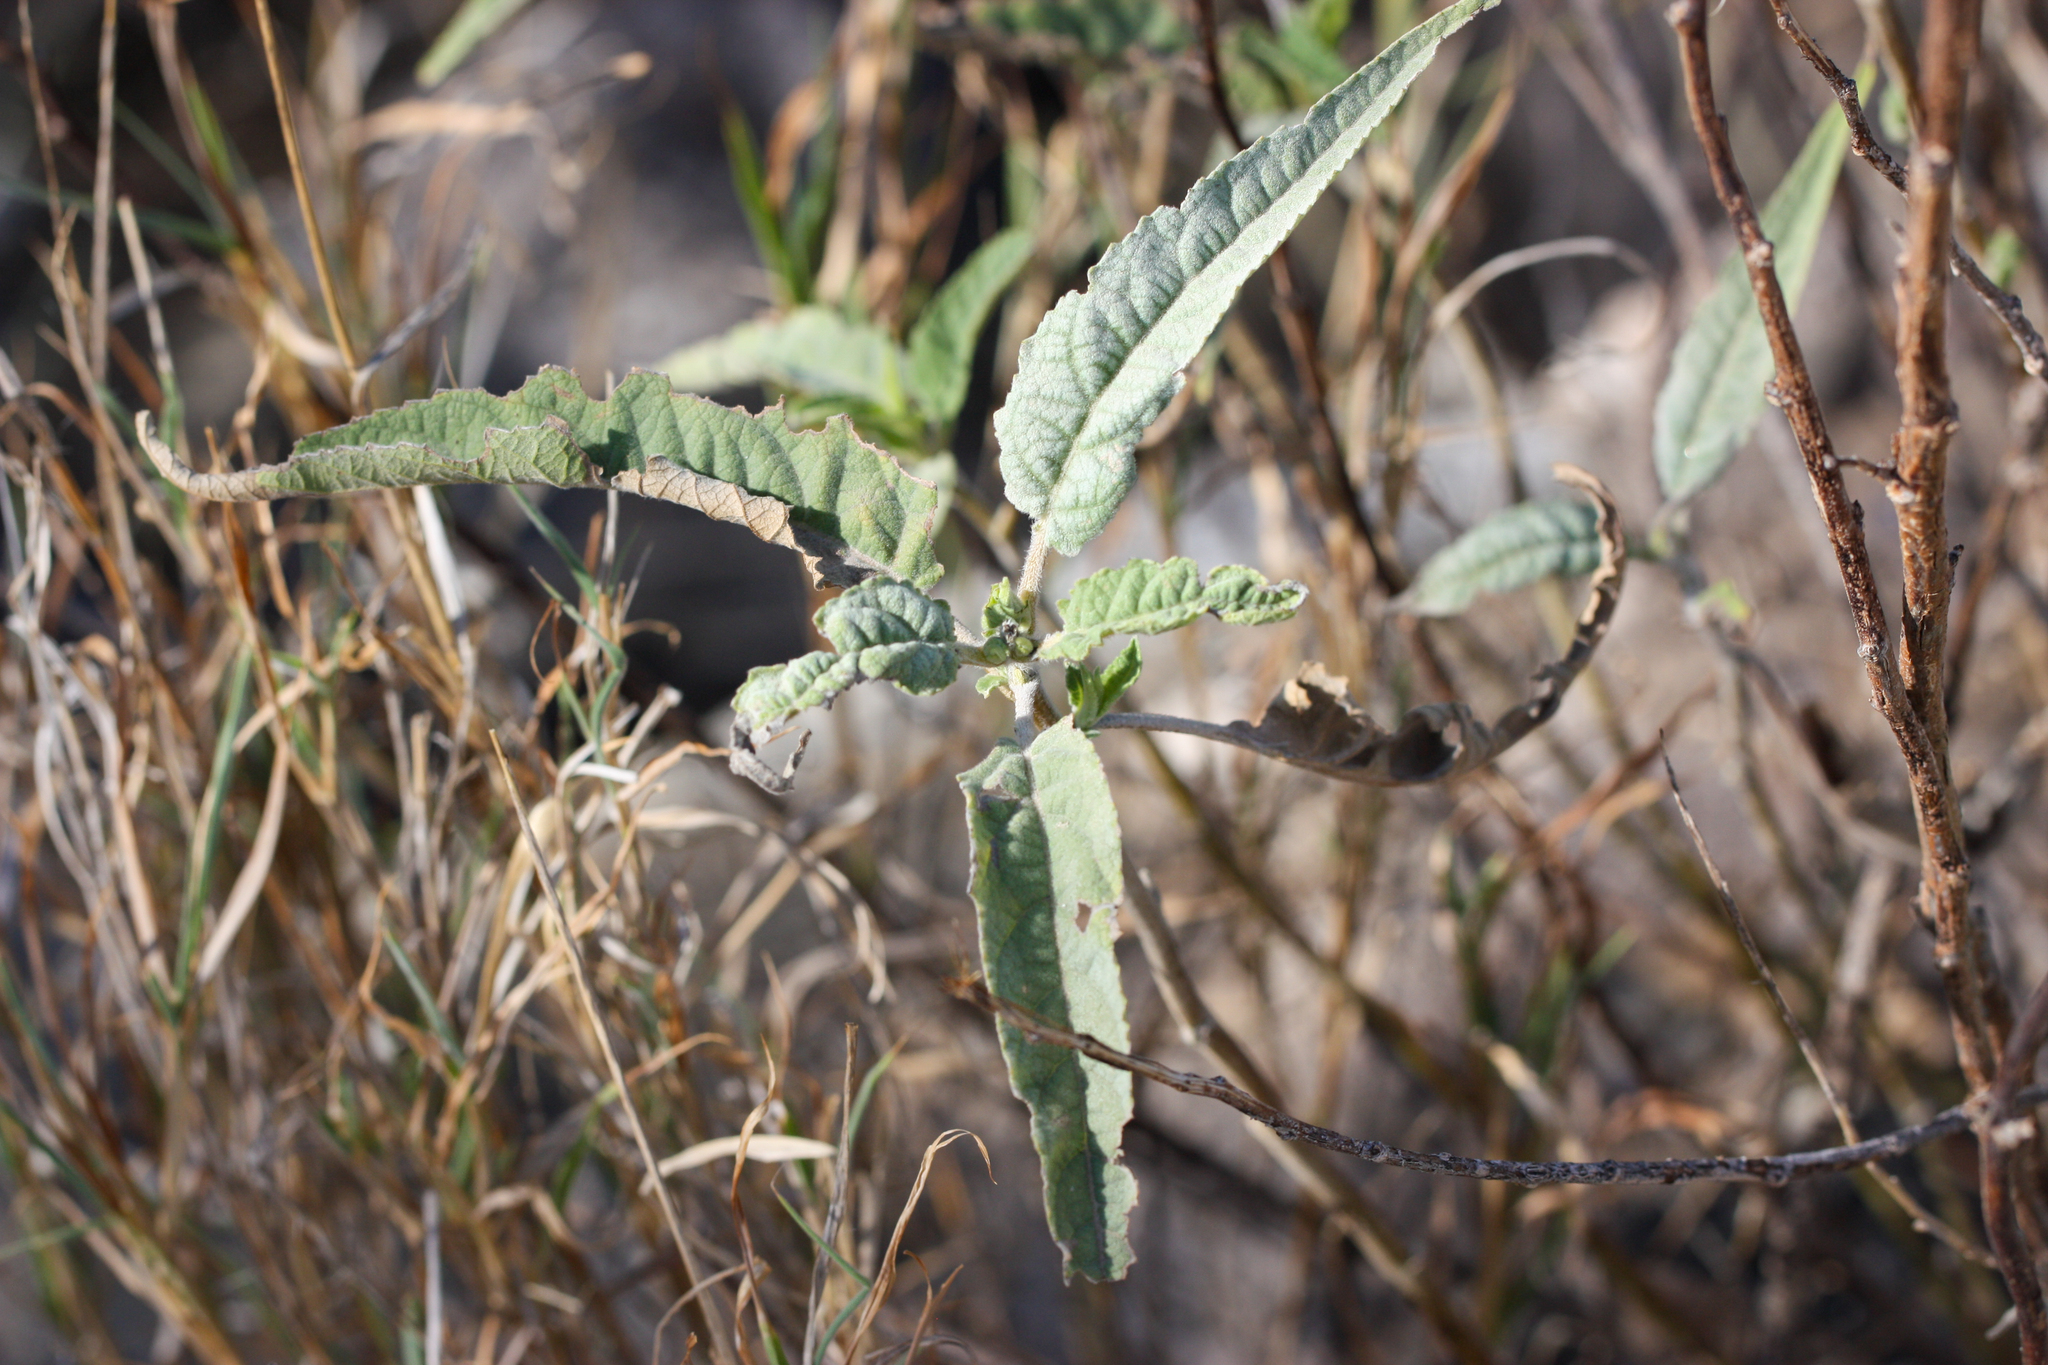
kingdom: Plantae
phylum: Tracheophyta
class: Magnoliopsida
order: Asterales
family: Asteraceae
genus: Ambrosia
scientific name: Ambrosia ambrosioides
